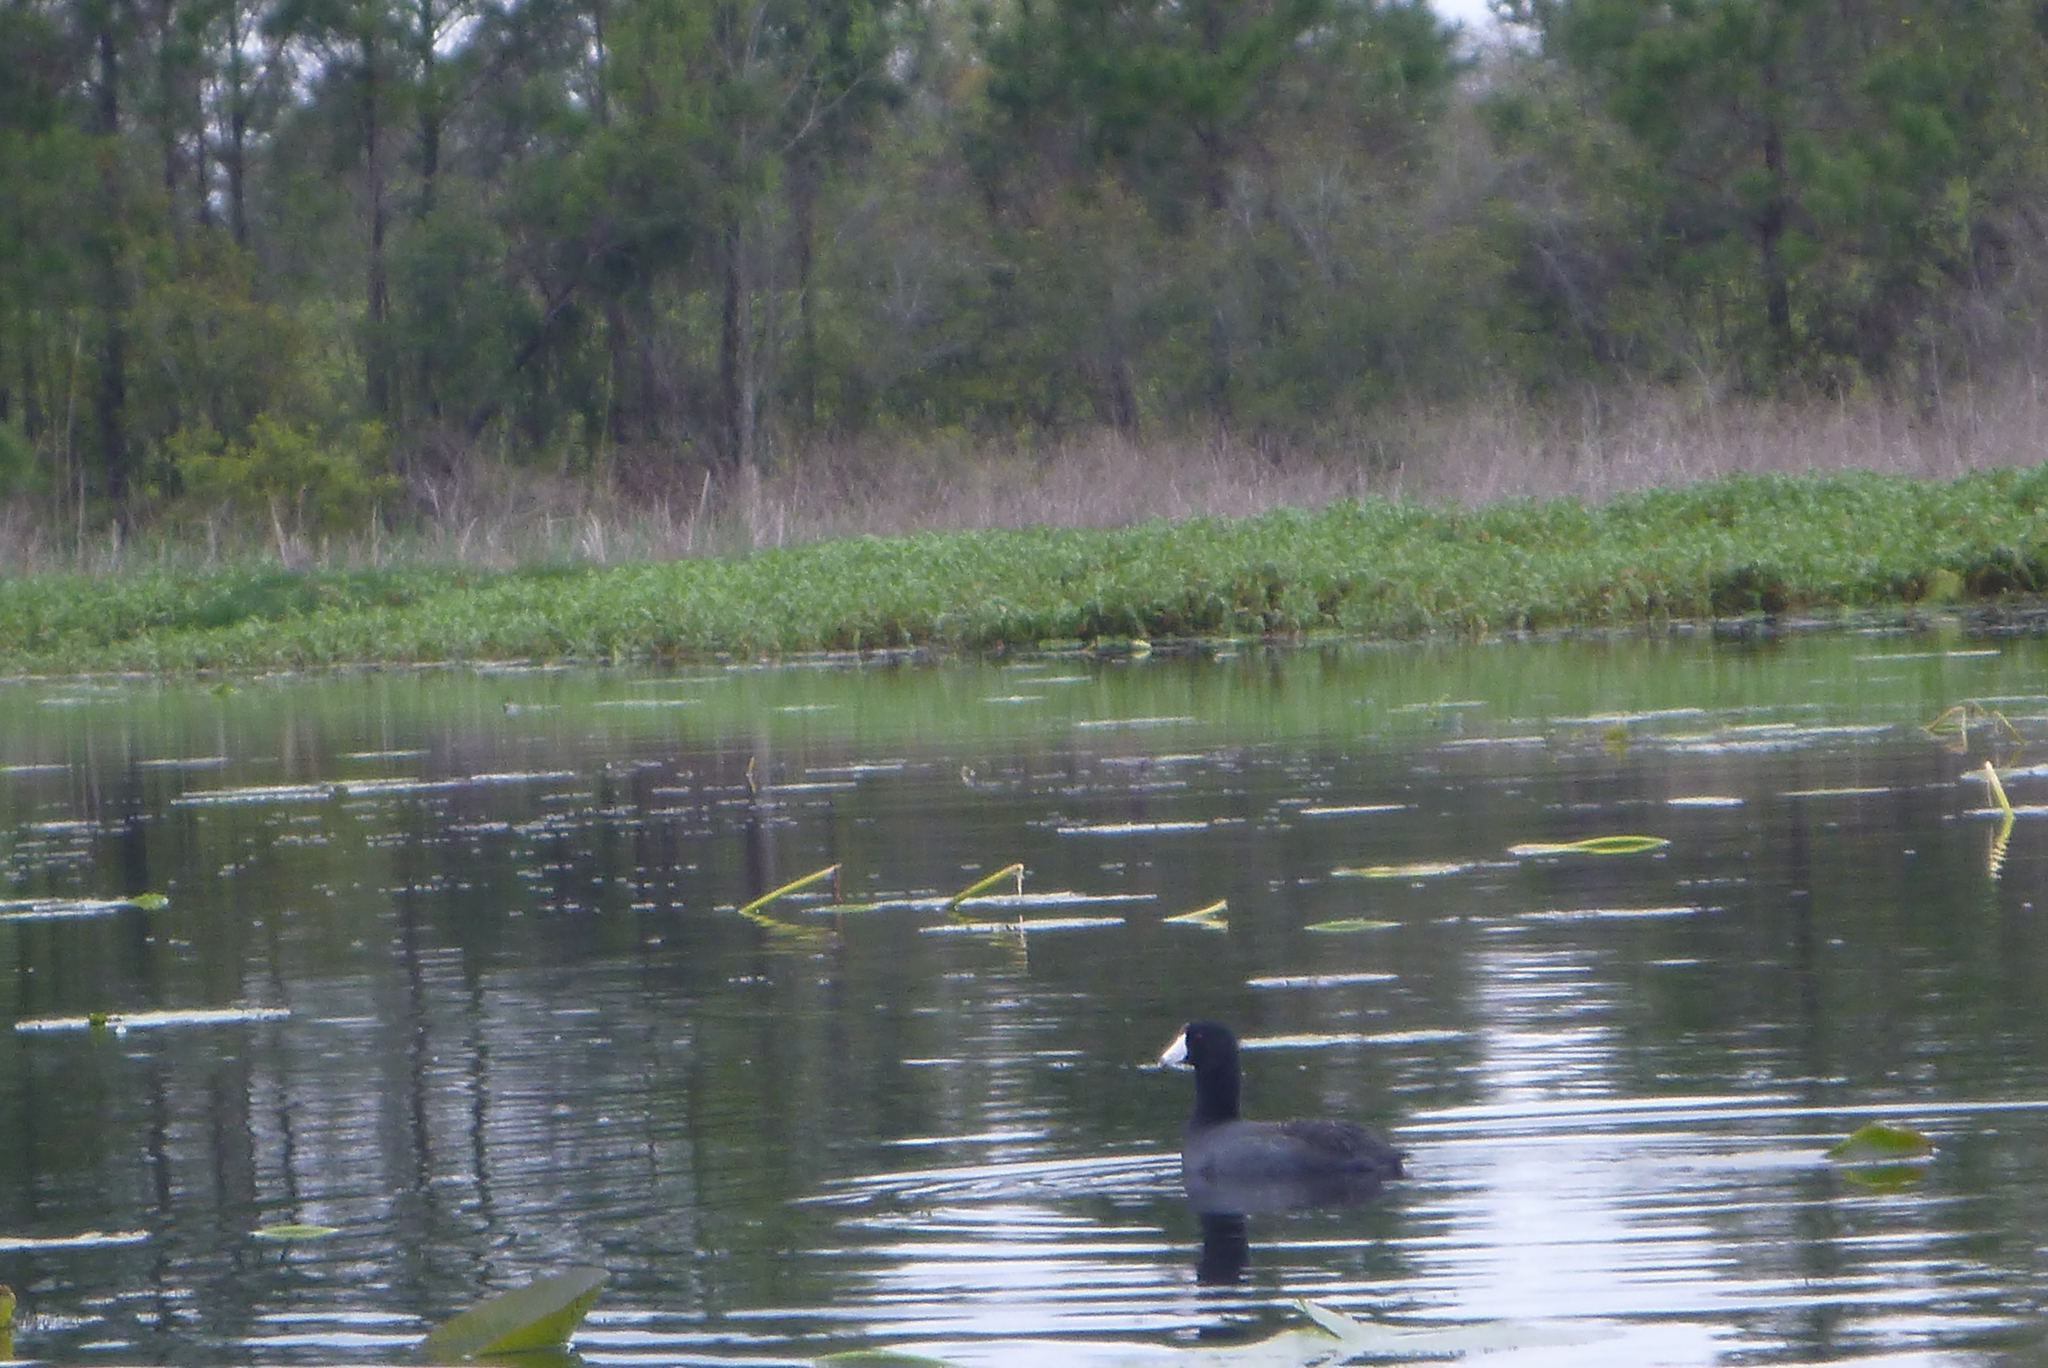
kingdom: Animalia
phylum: Chordata
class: Aves
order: Gruiformes
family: Rallidae
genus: Fulica
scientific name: Fulica americana
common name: American coot
